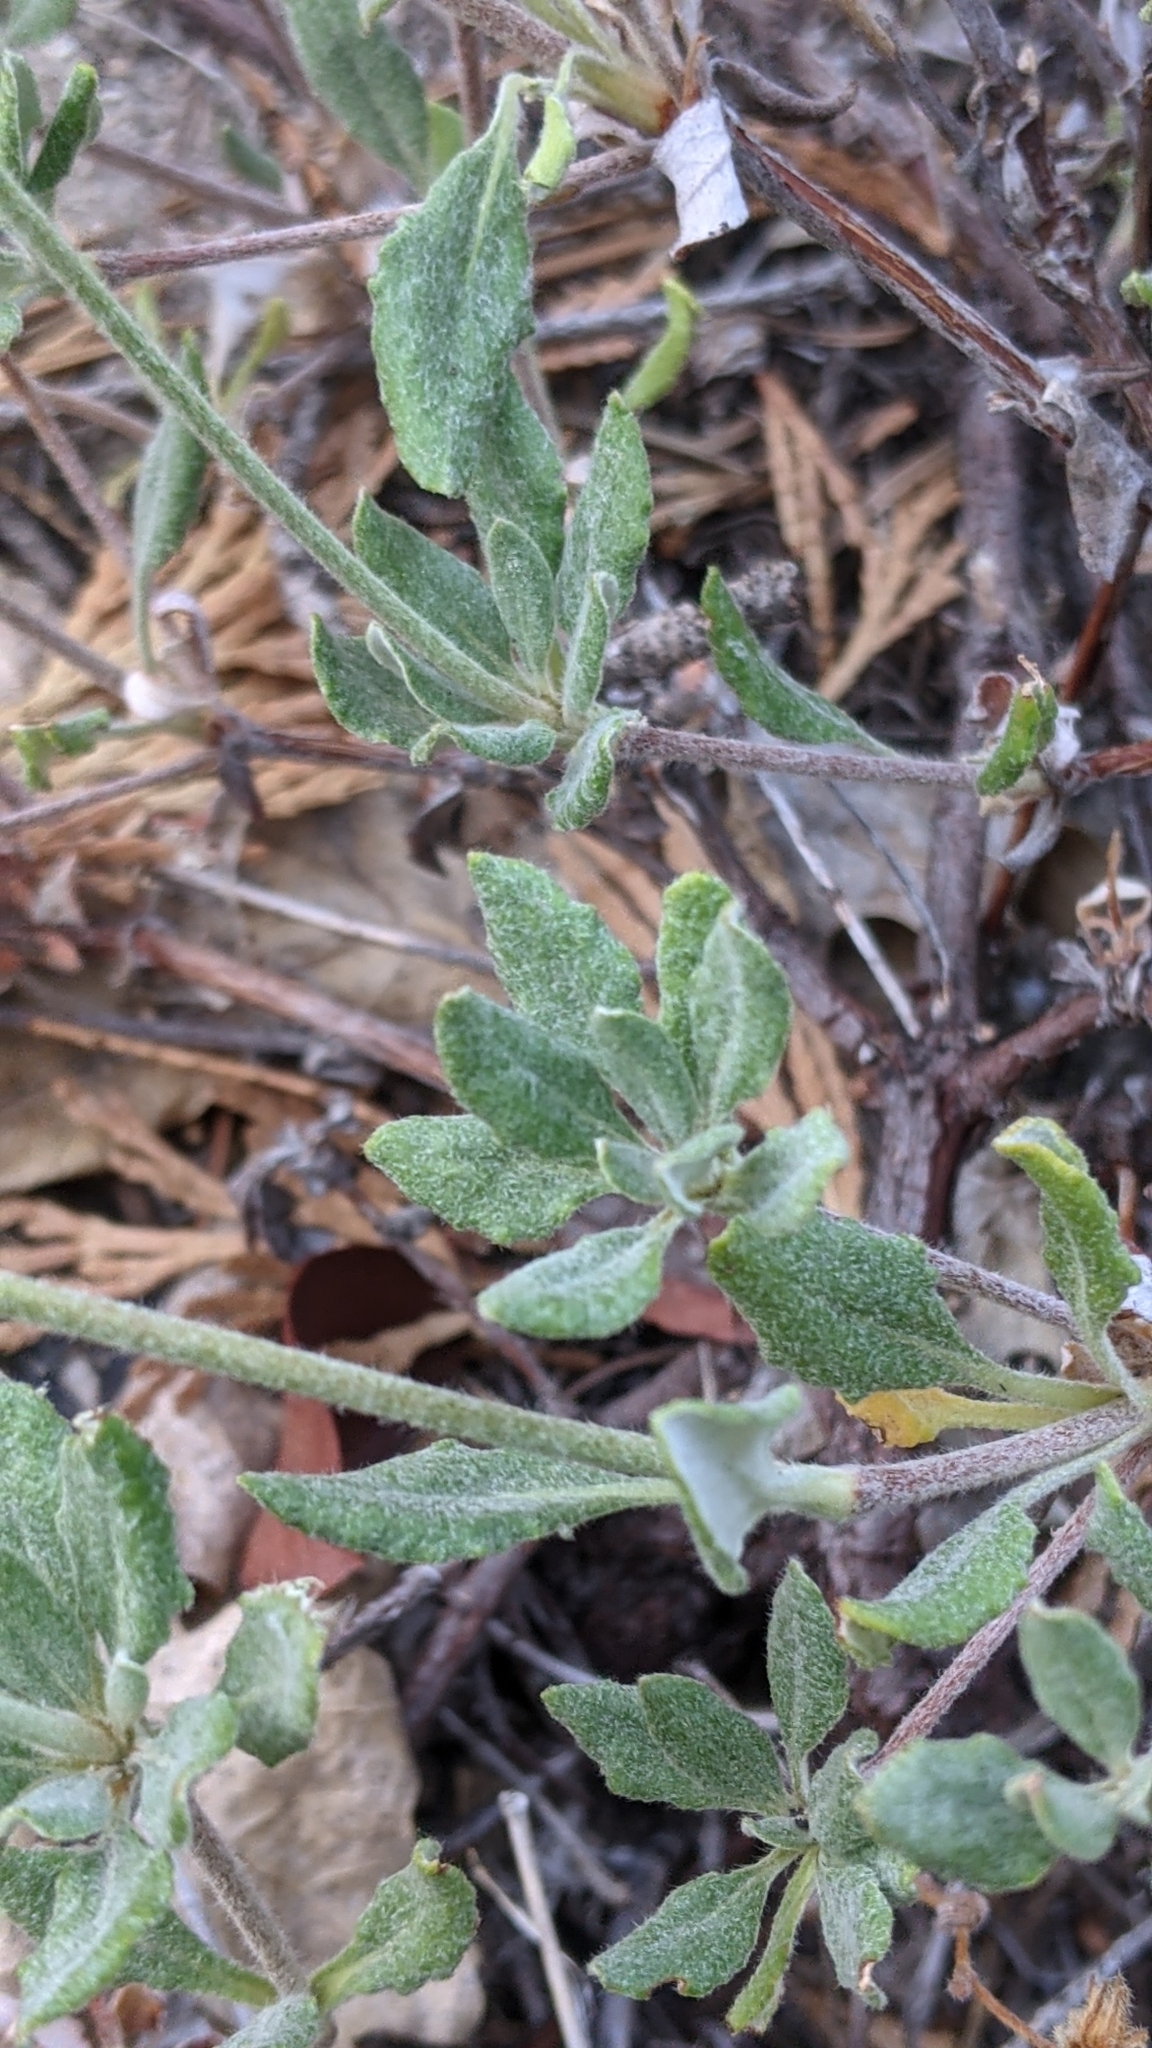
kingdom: Plantae
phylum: Tracheophyta
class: Magnoliopsida
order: Caryophyllales
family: Polygonaceae
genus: Eriogonum
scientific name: Eriogonum umbellatum
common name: Sulfur-buckwheat
